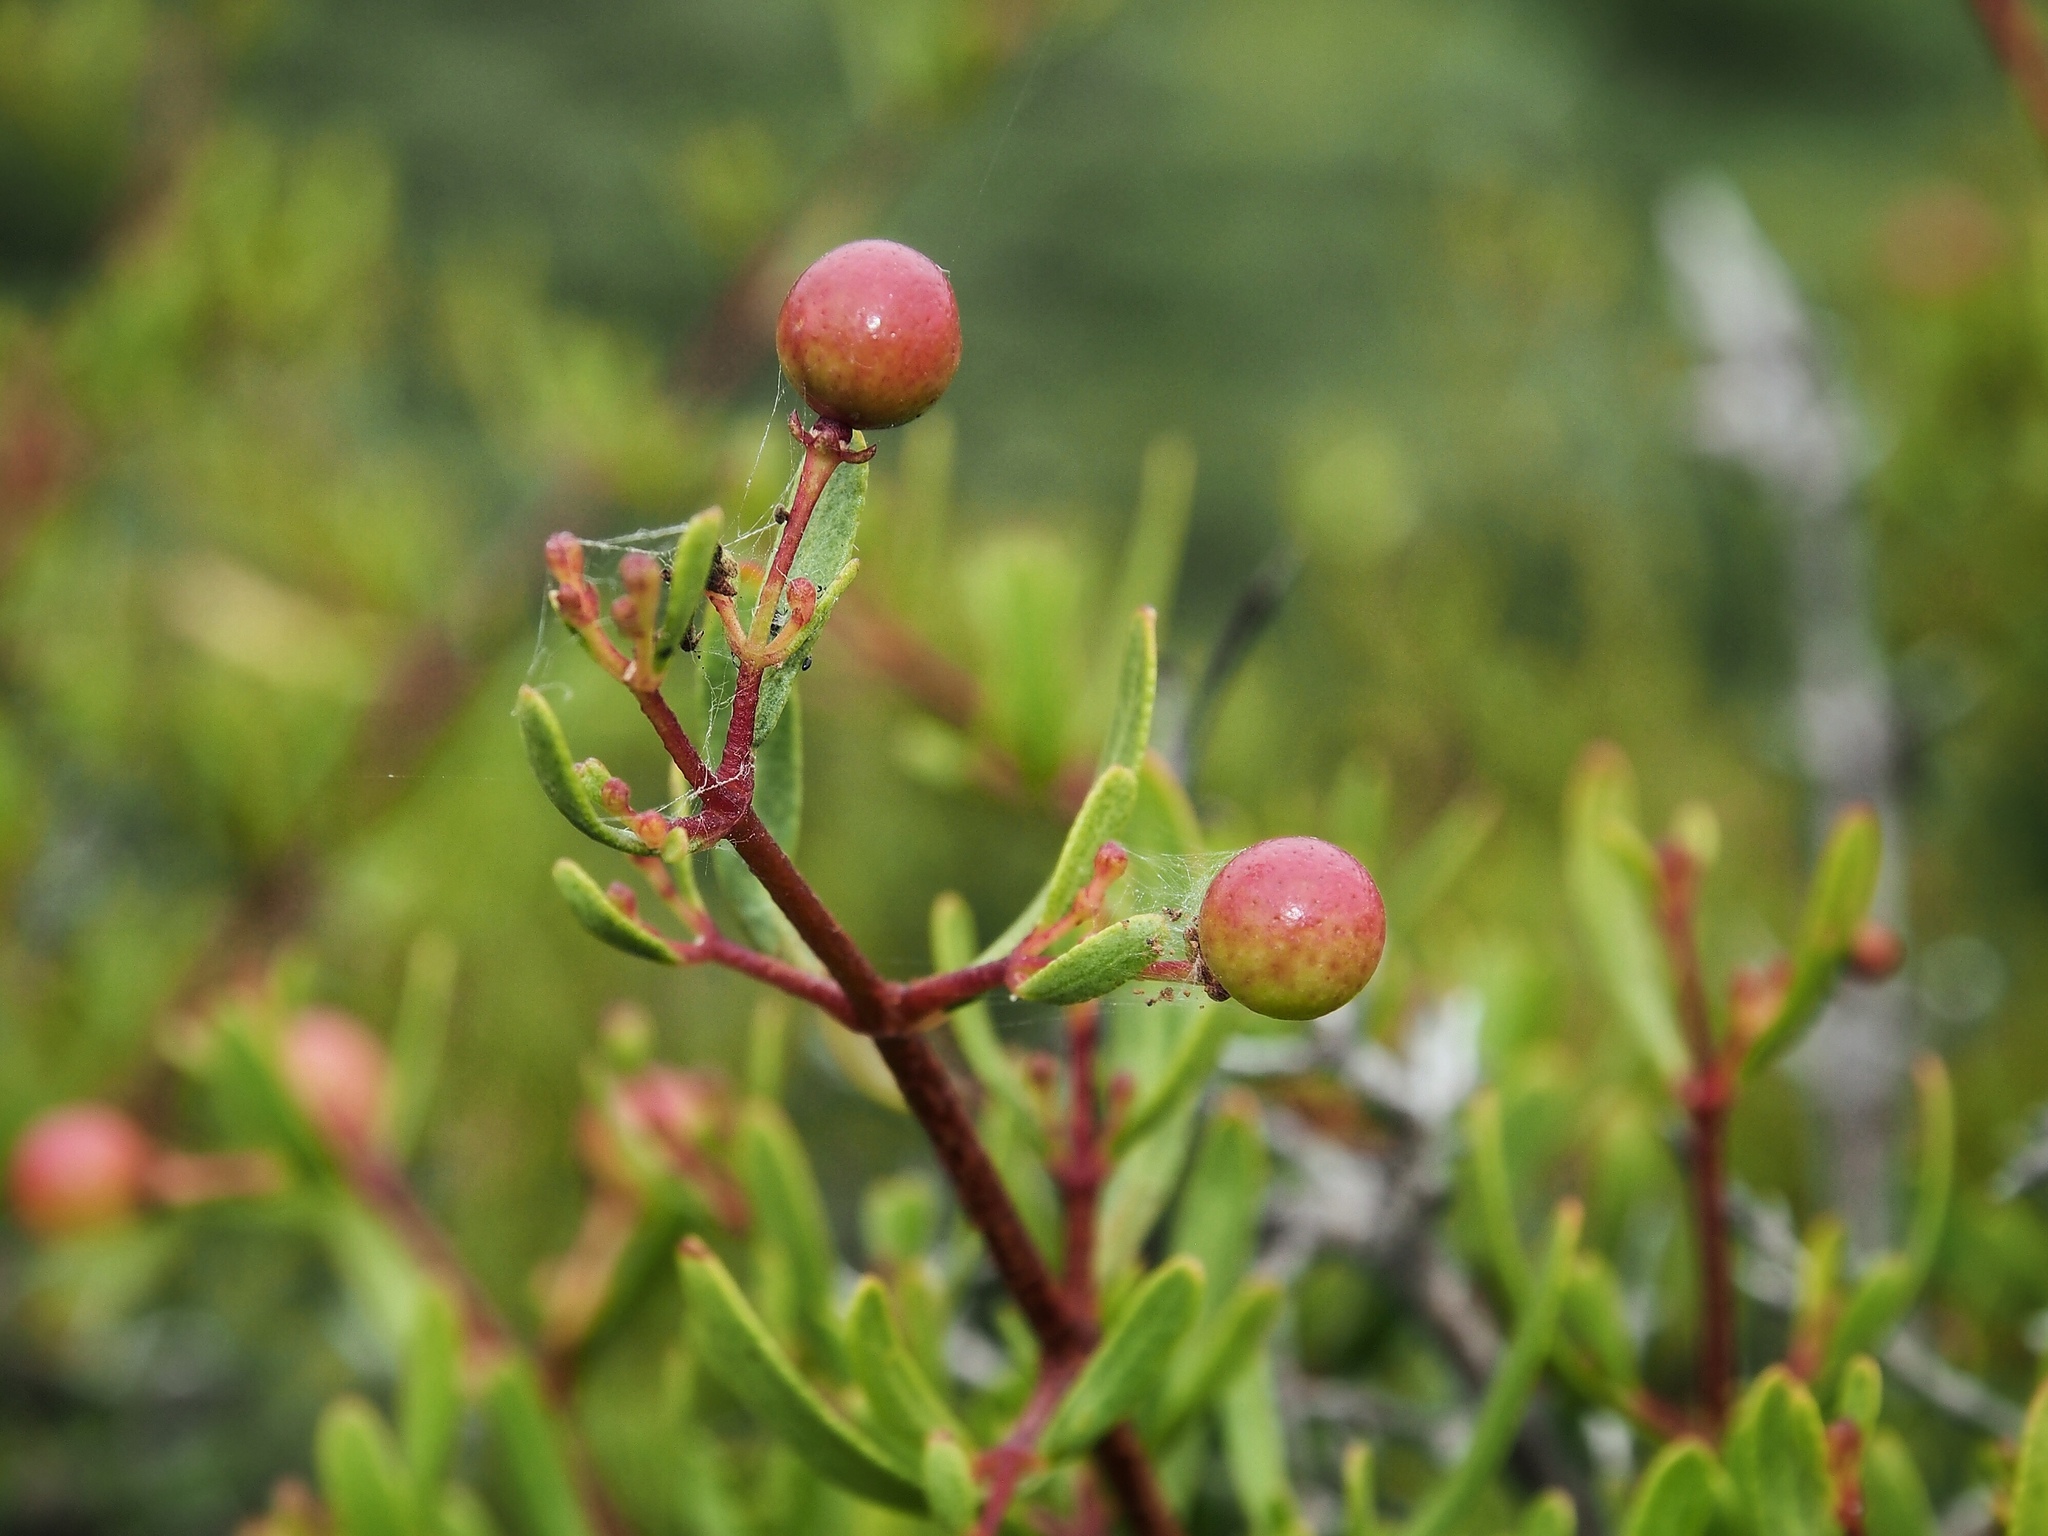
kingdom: Plantae
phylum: Tracheophyta
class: Magnoliopsida
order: Sapindales
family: Rutaceae
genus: Cneoridium
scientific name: Cneoridium dumosum
